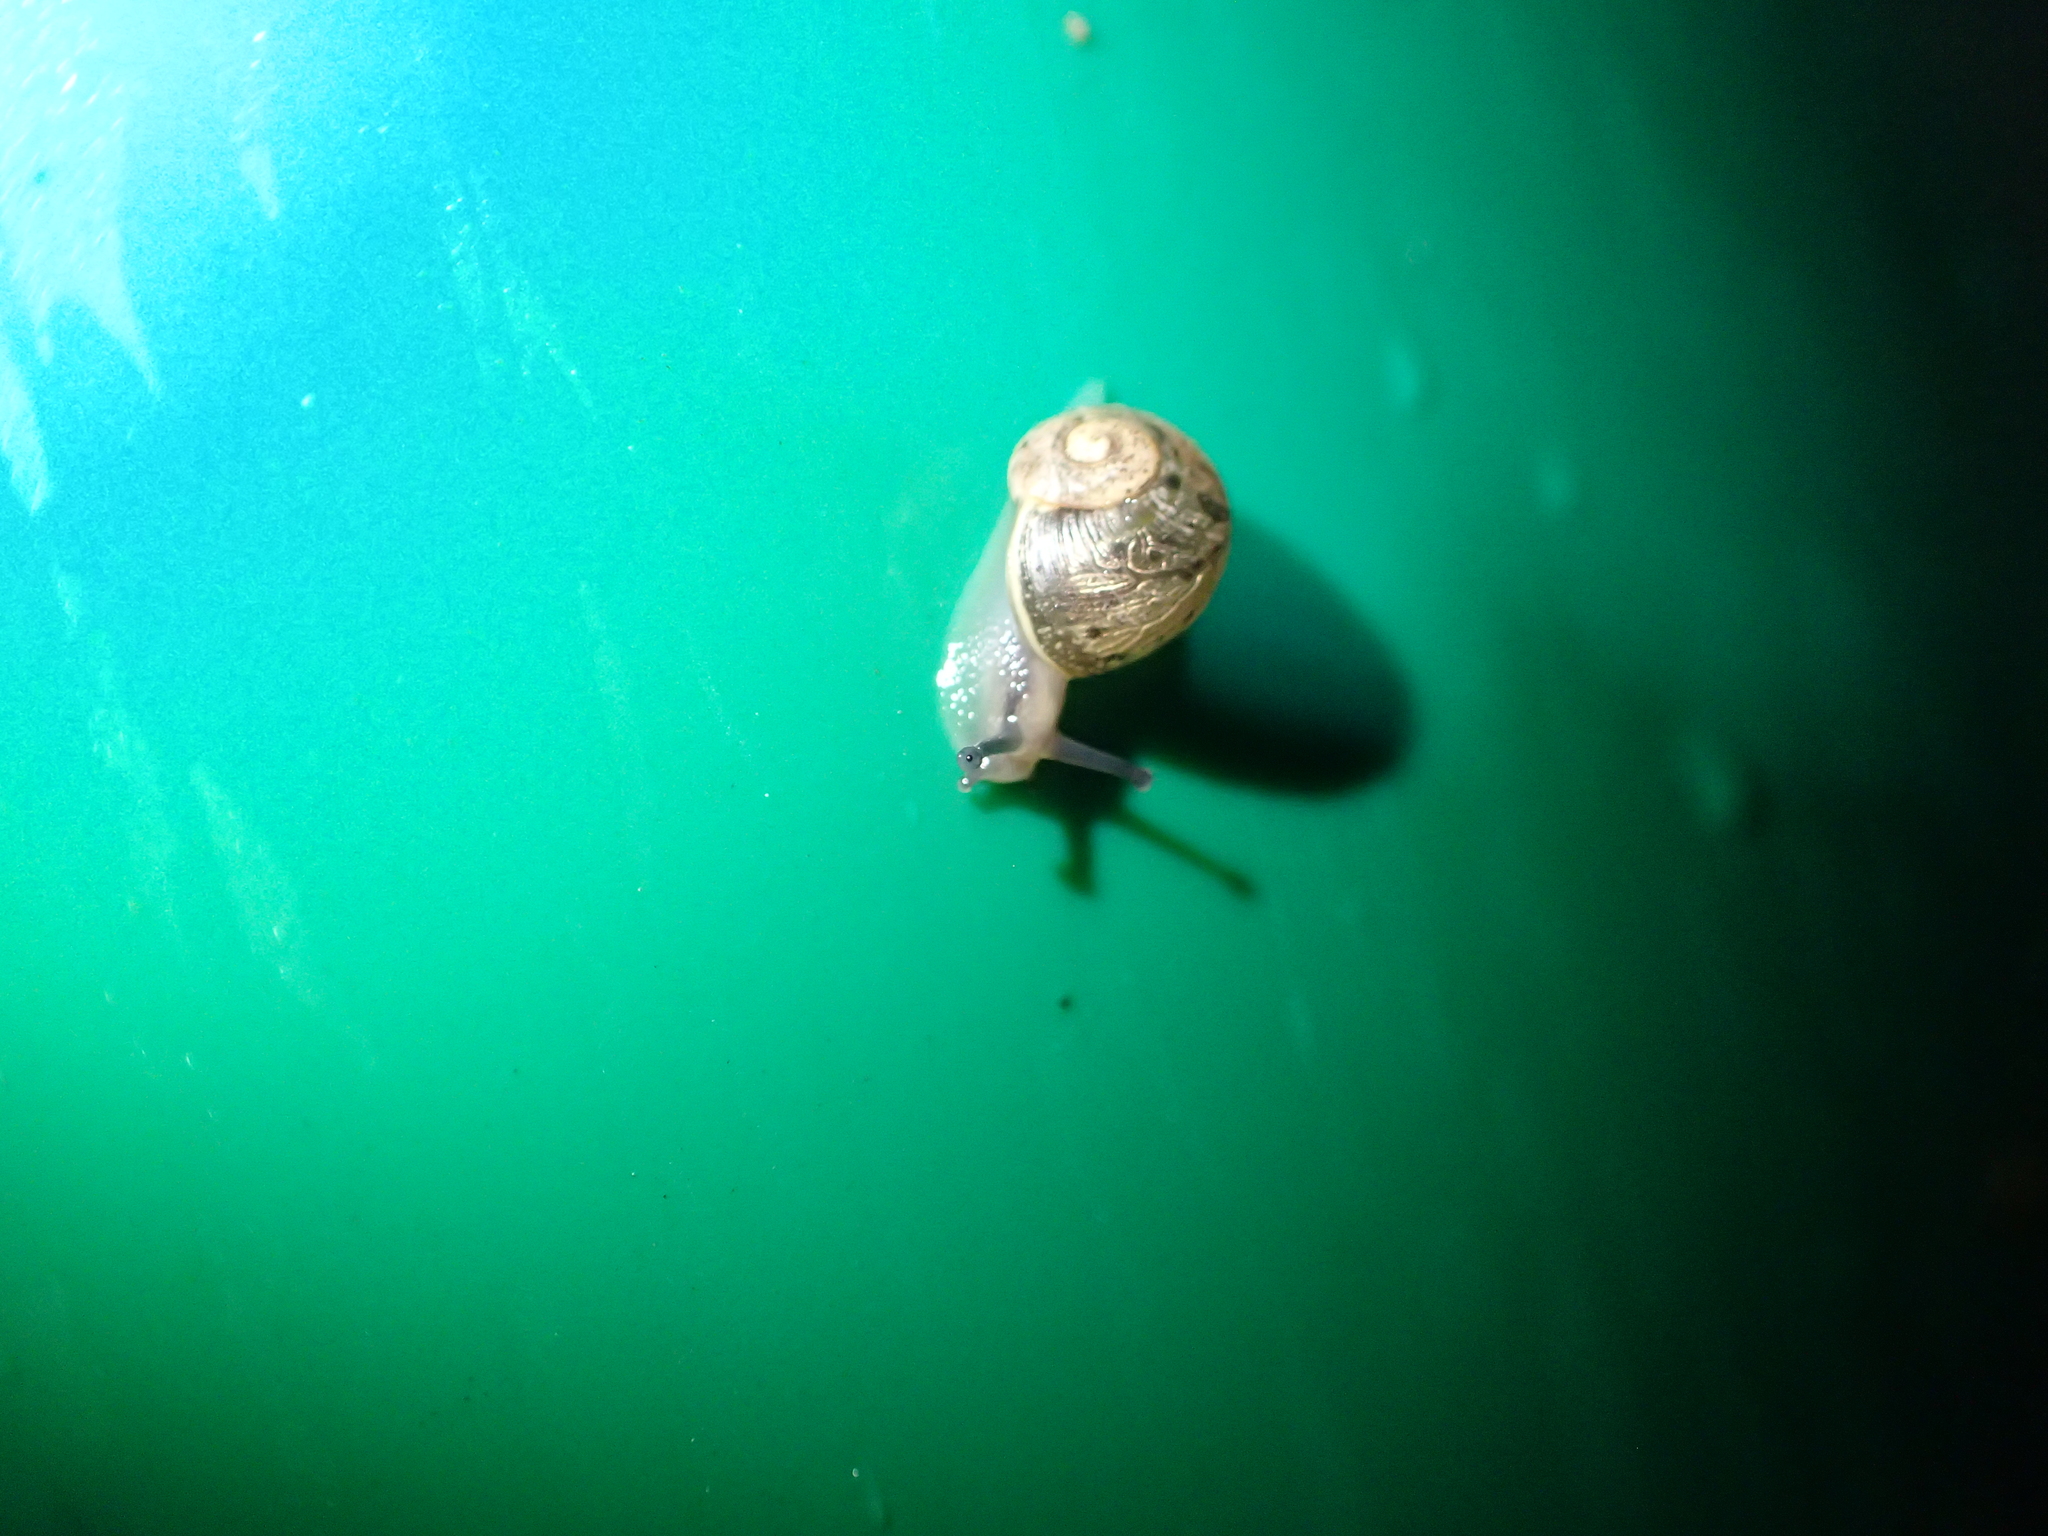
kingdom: Animalia
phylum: Mollusca
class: Gastropoda
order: Stylommatophora
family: Helicidae
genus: Cornu
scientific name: Cornu aspersum
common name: Brown garden snail
